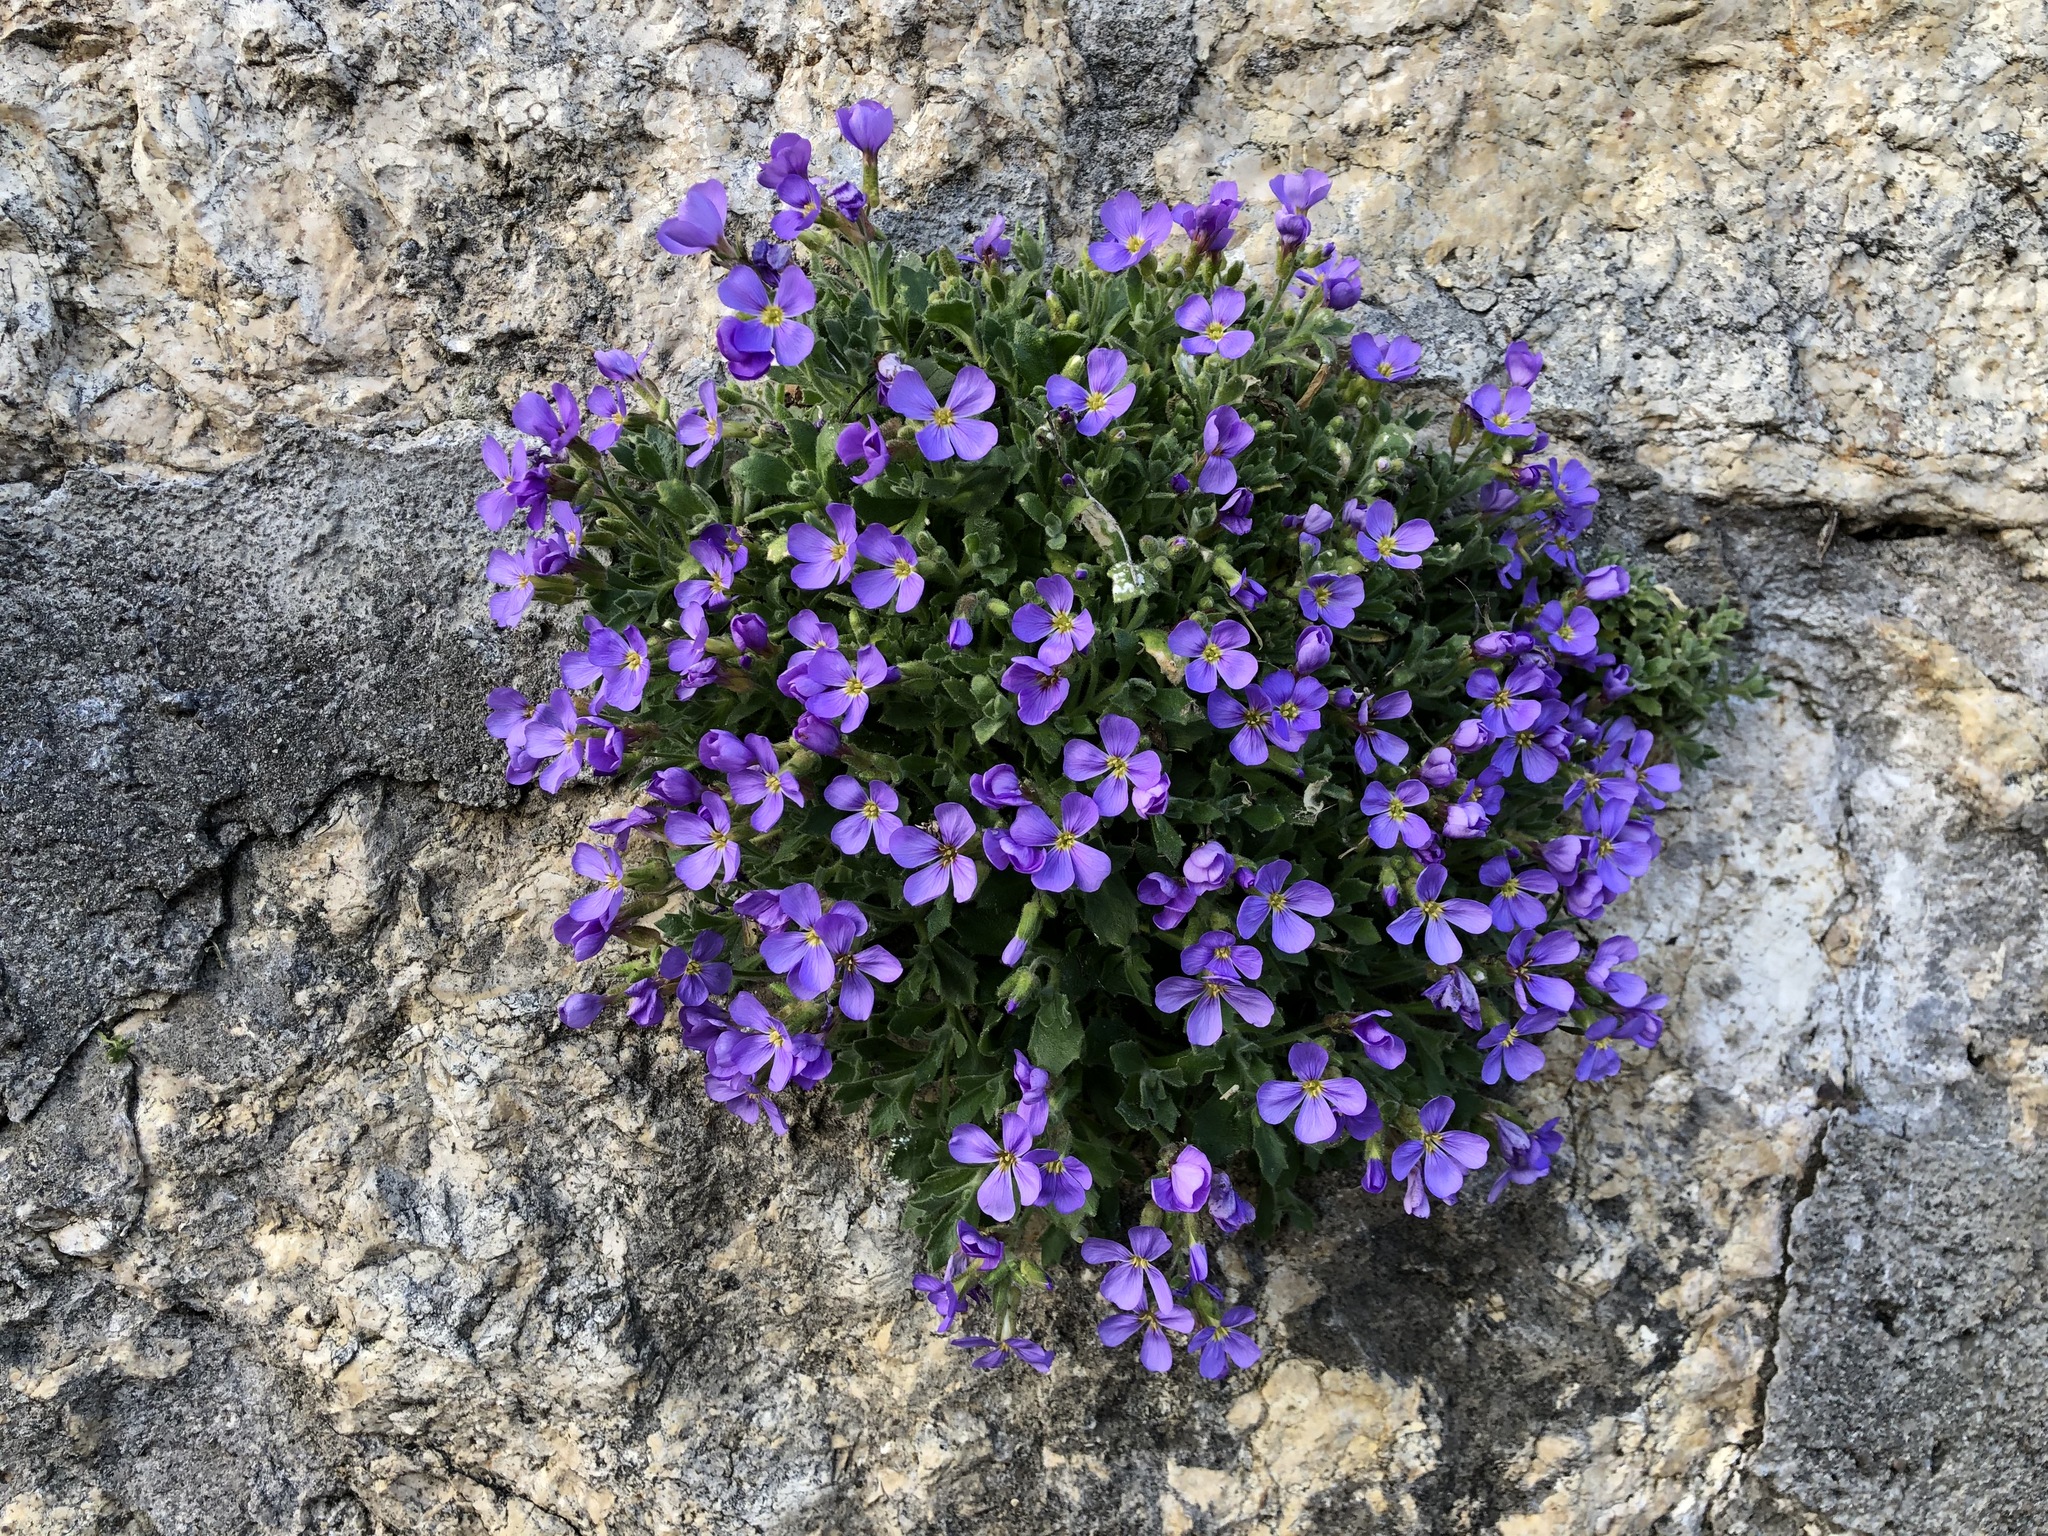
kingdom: Plantae
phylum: Tracheophyta
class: Magnoliopsida
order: Brassicales
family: Brassicaceae
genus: Aubrieta
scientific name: Aubrieta deltoidea
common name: Aubretia
